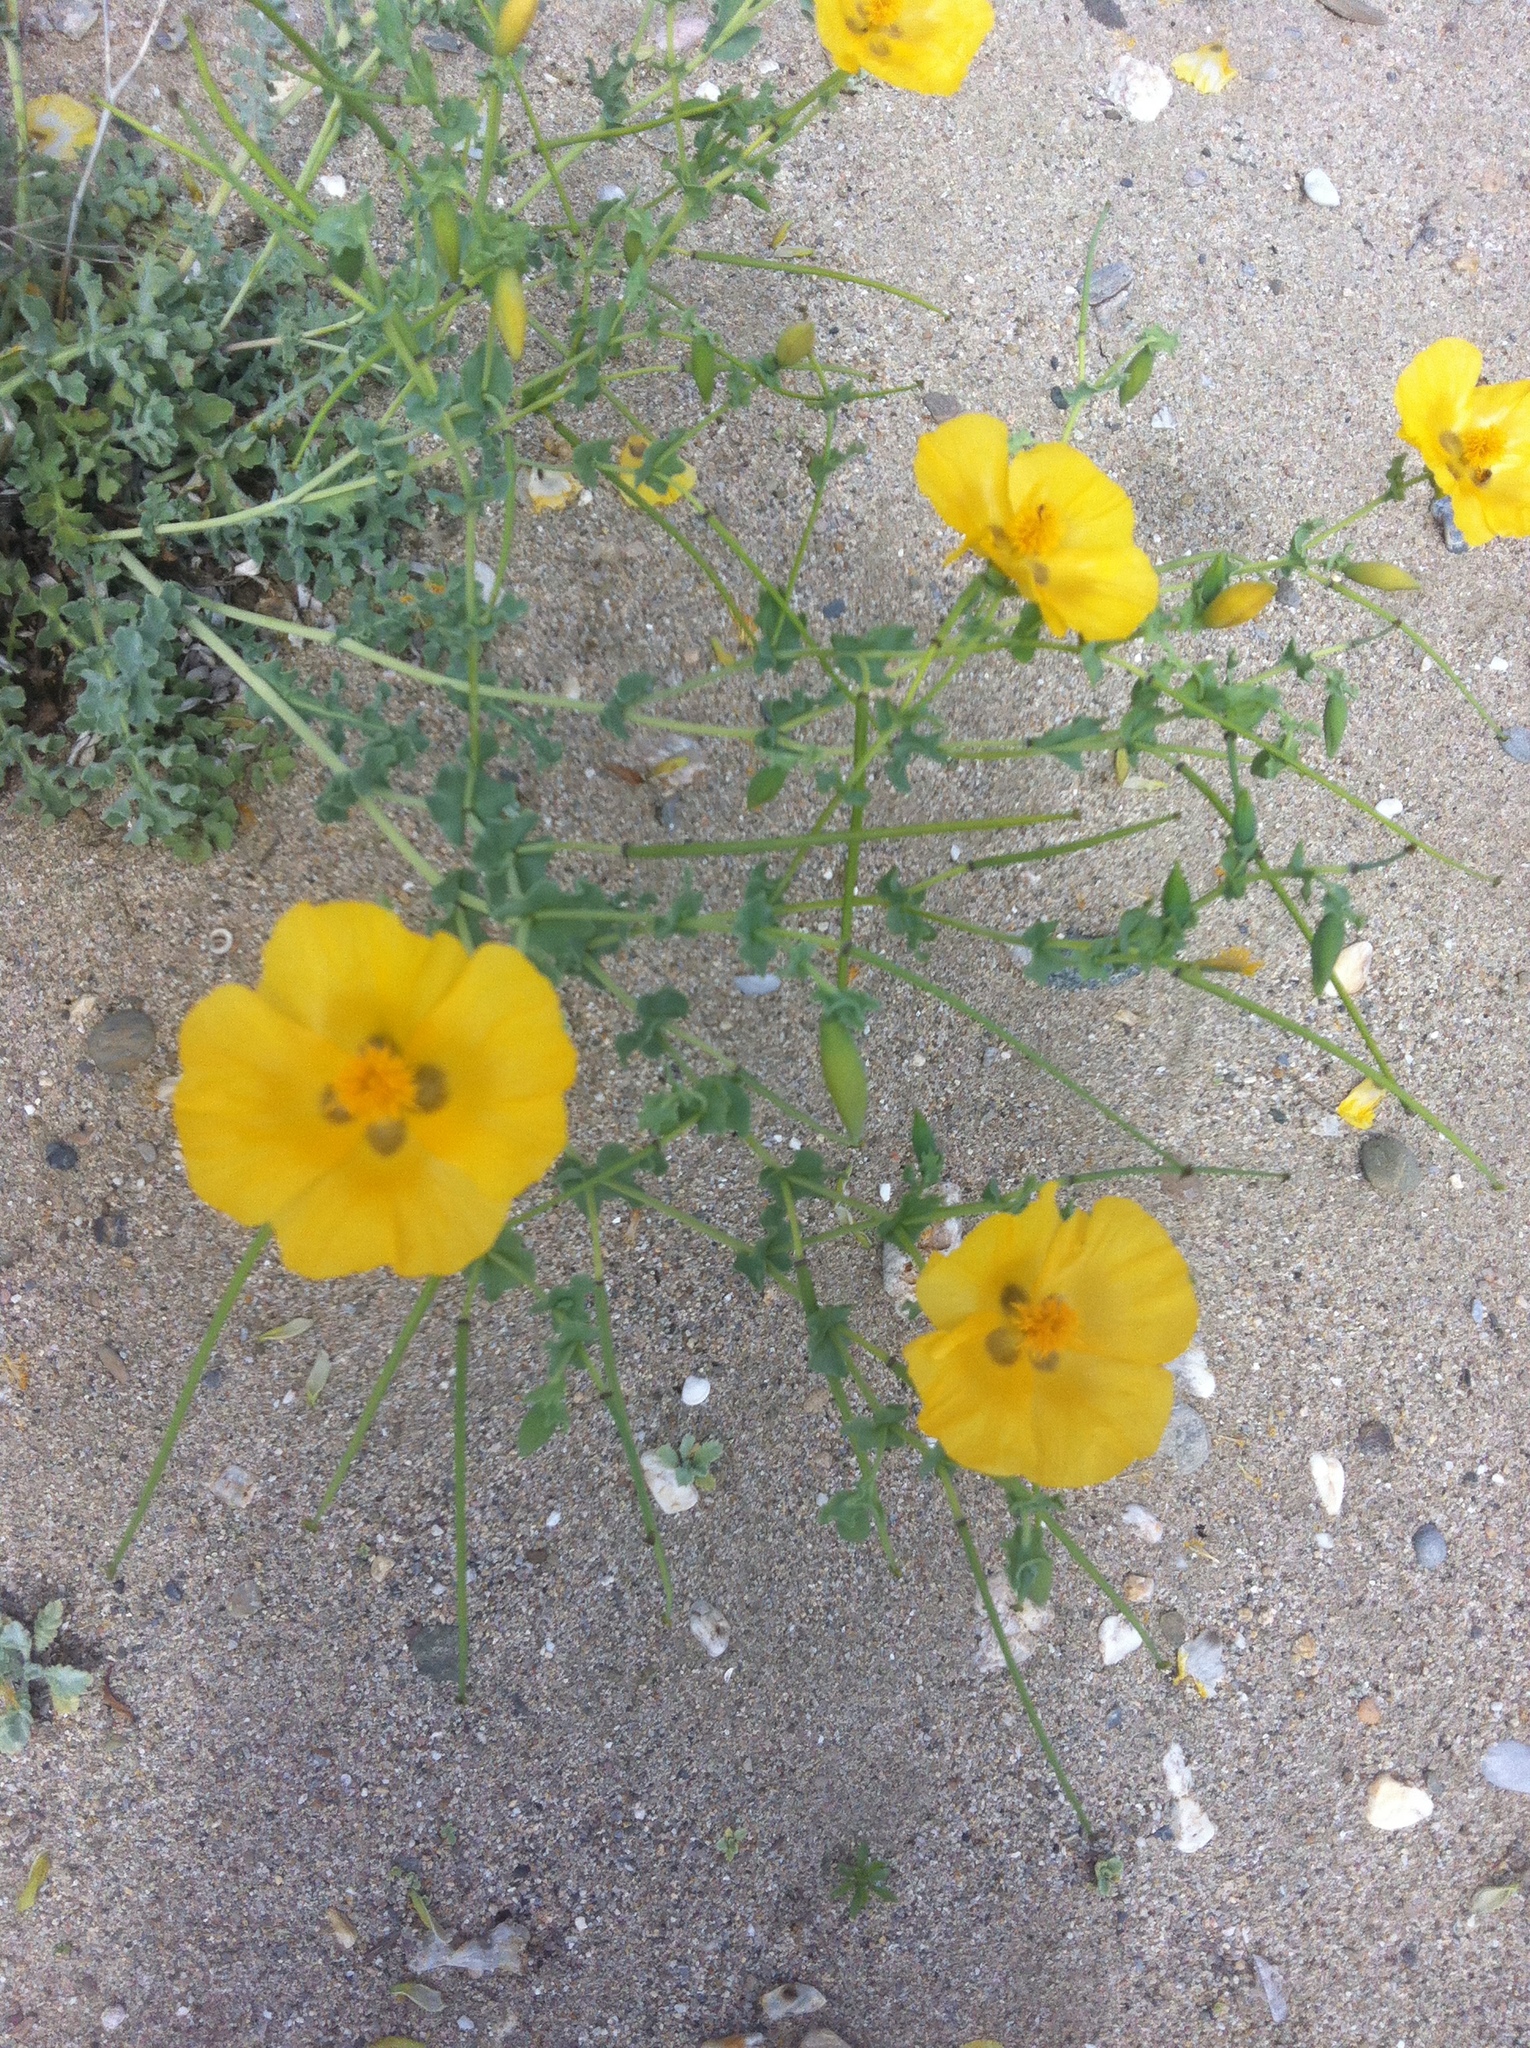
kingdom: Plantae
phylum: Tracheophyta
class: Magnoliopsida
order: Ranunculales
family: Papaveraceae
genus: Glaucium
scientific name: Glaucium flavum
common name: Yellow horned-poppy
